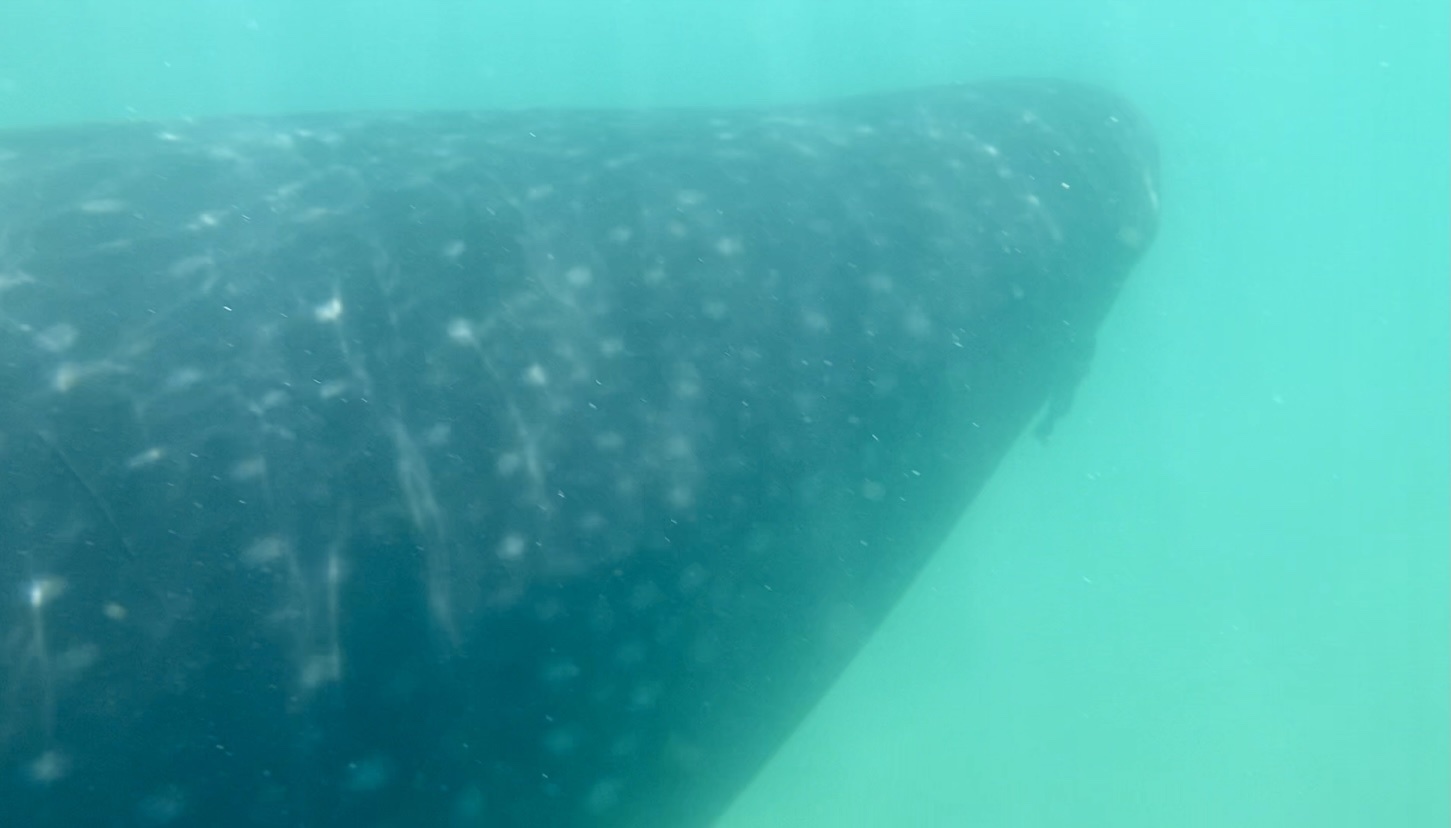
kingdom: Animalia
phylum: Chordata
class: Elasmobranchii
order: Orectolobiformes
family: Rhincodontidae
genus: Rhincodon
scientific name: Rhincodon typus
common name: Whale shark
